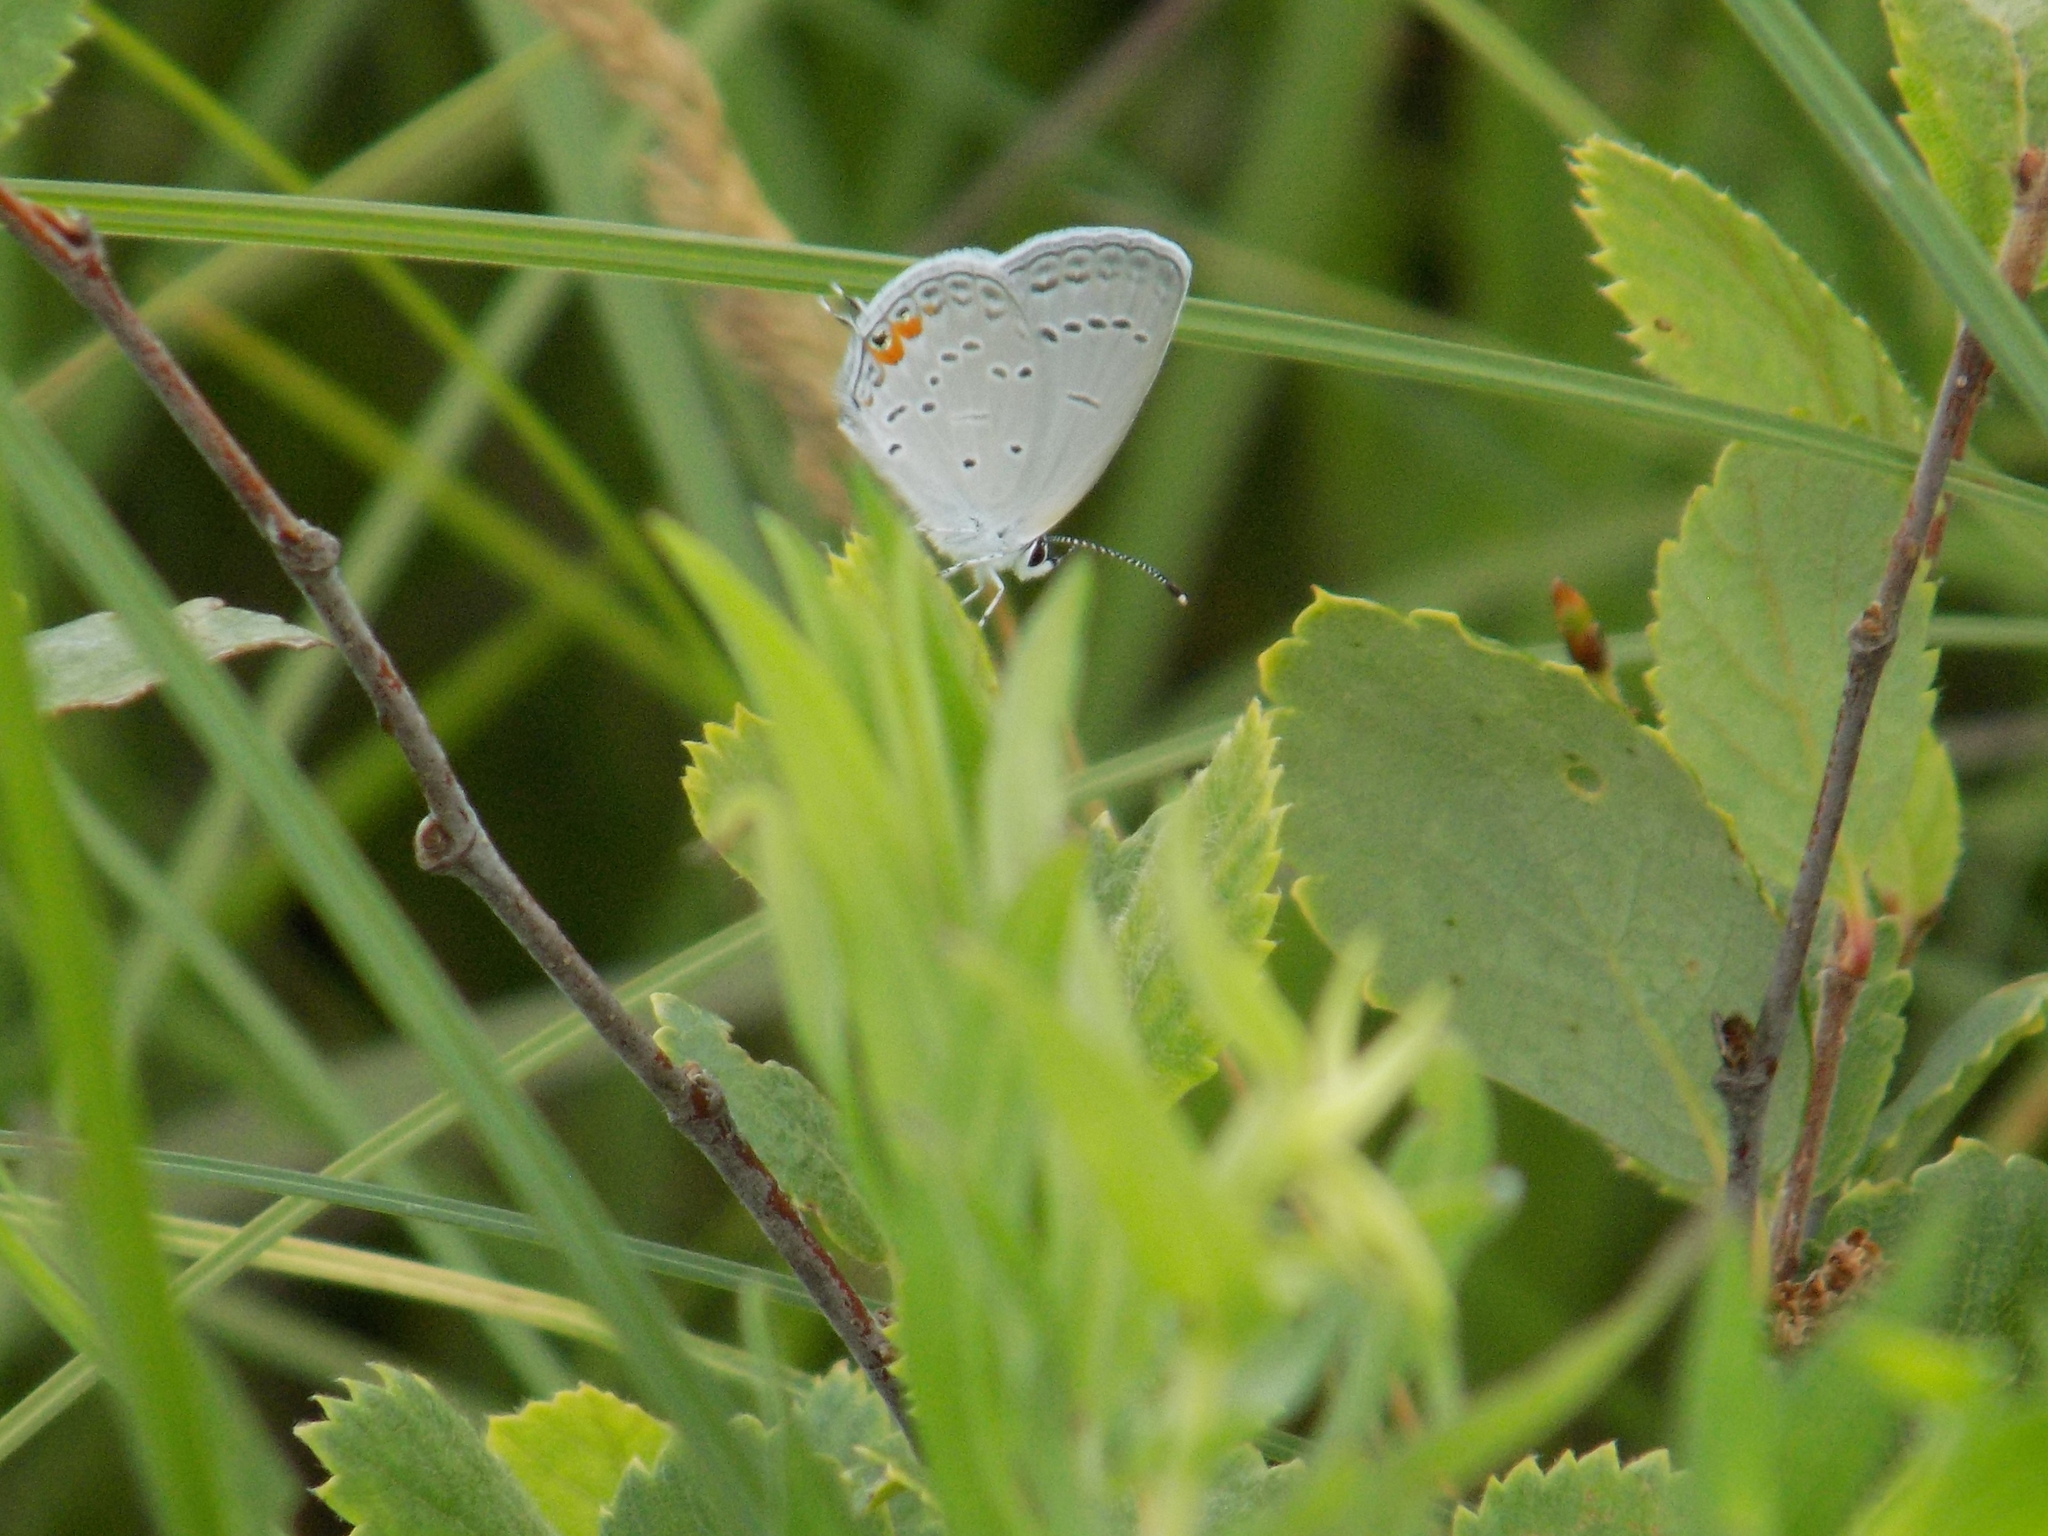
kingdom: Animalia
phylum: Arthropoda
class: Insecta
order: Lepidoptera
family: Lycaenidae
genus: Elkalyce
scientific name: Elkalyce comyntas
